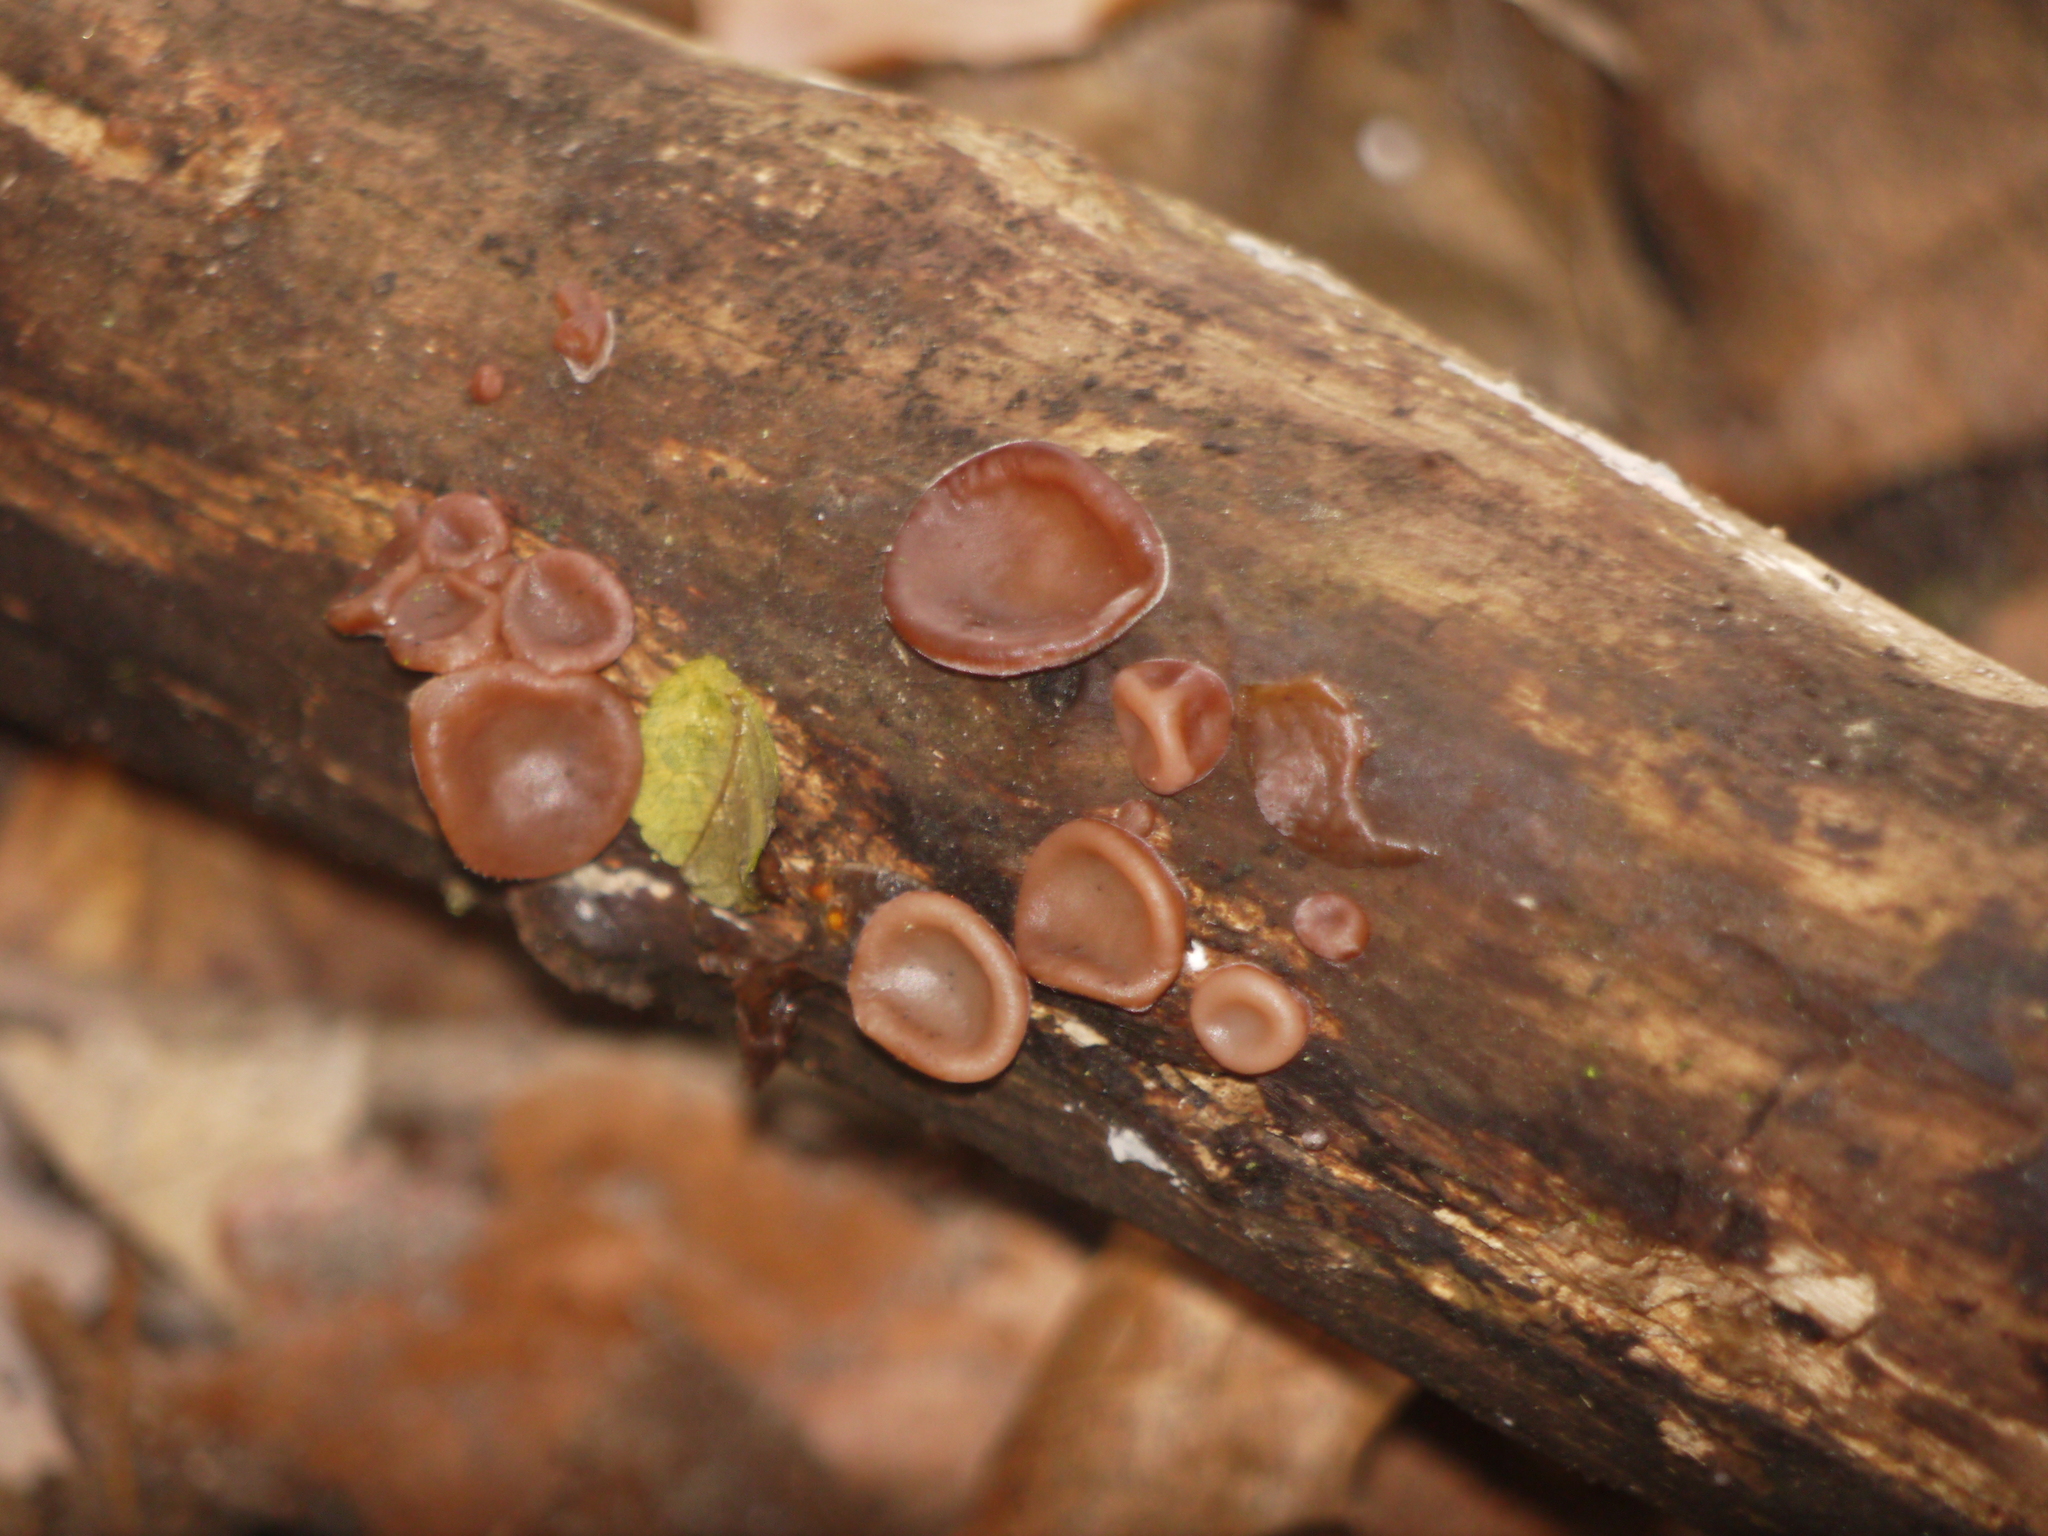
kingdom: Fungi
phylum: Basidiomycota
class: Agaricomycetes
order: Auriculariales
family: Auriculariaceae
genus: Auricularia
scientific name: Auricularia auricula-judae
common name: Jelly ear
